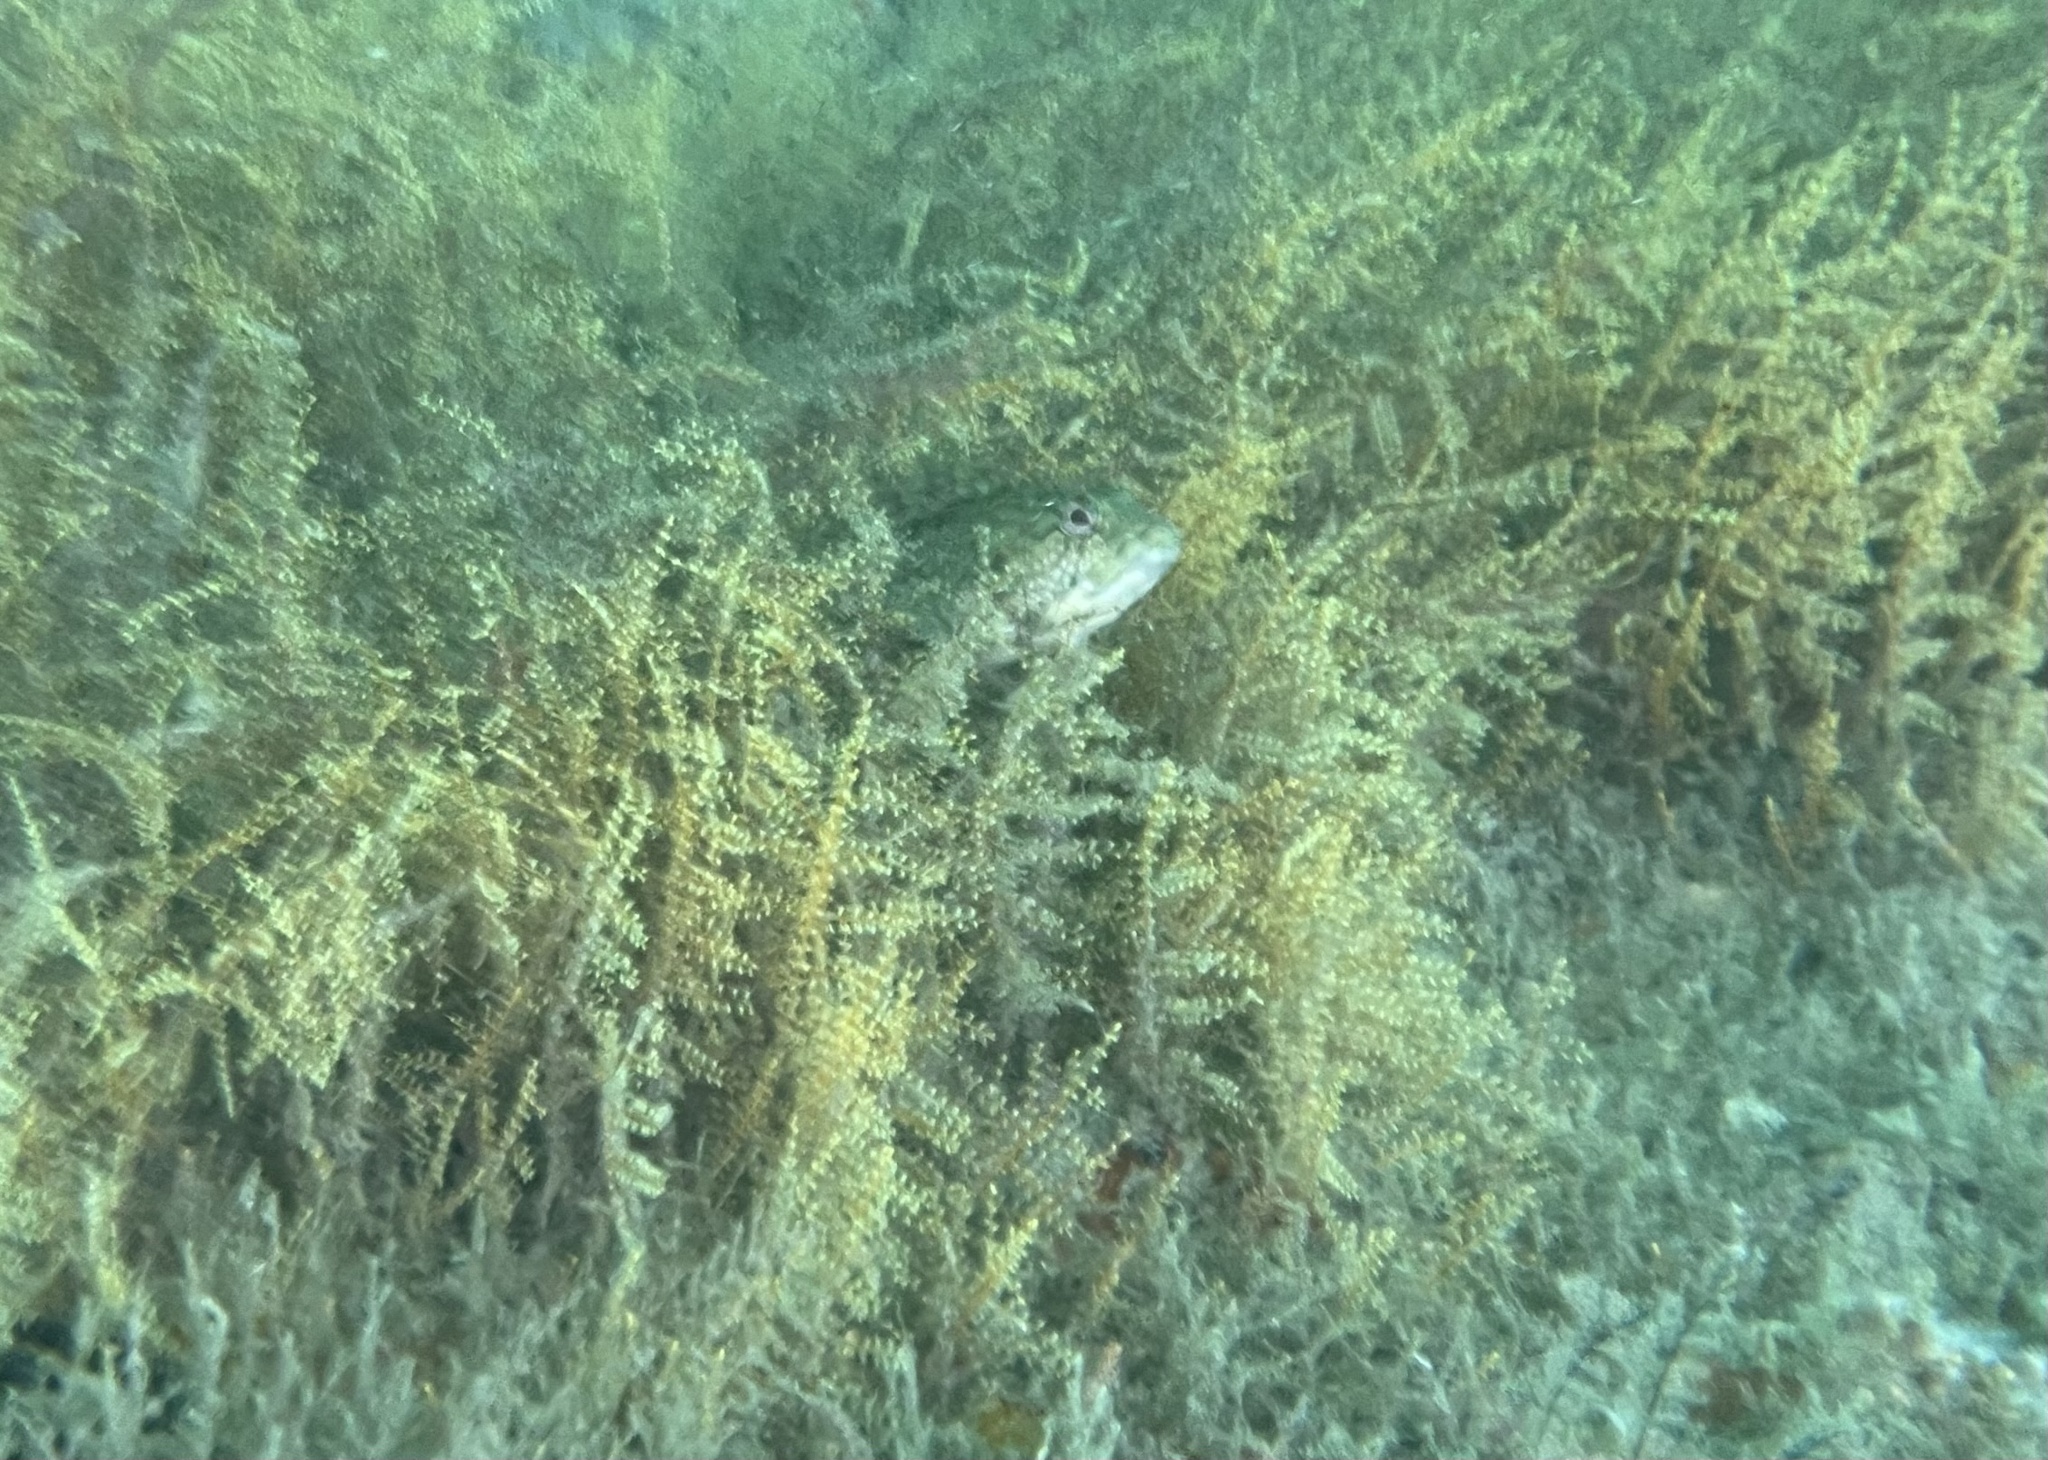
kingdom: Animalia
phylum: Chordata
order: Perciformes
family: Labrisomidae
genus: Labrisomus
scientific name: Labrisomus conditus
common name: Masquerader hairy blenny
